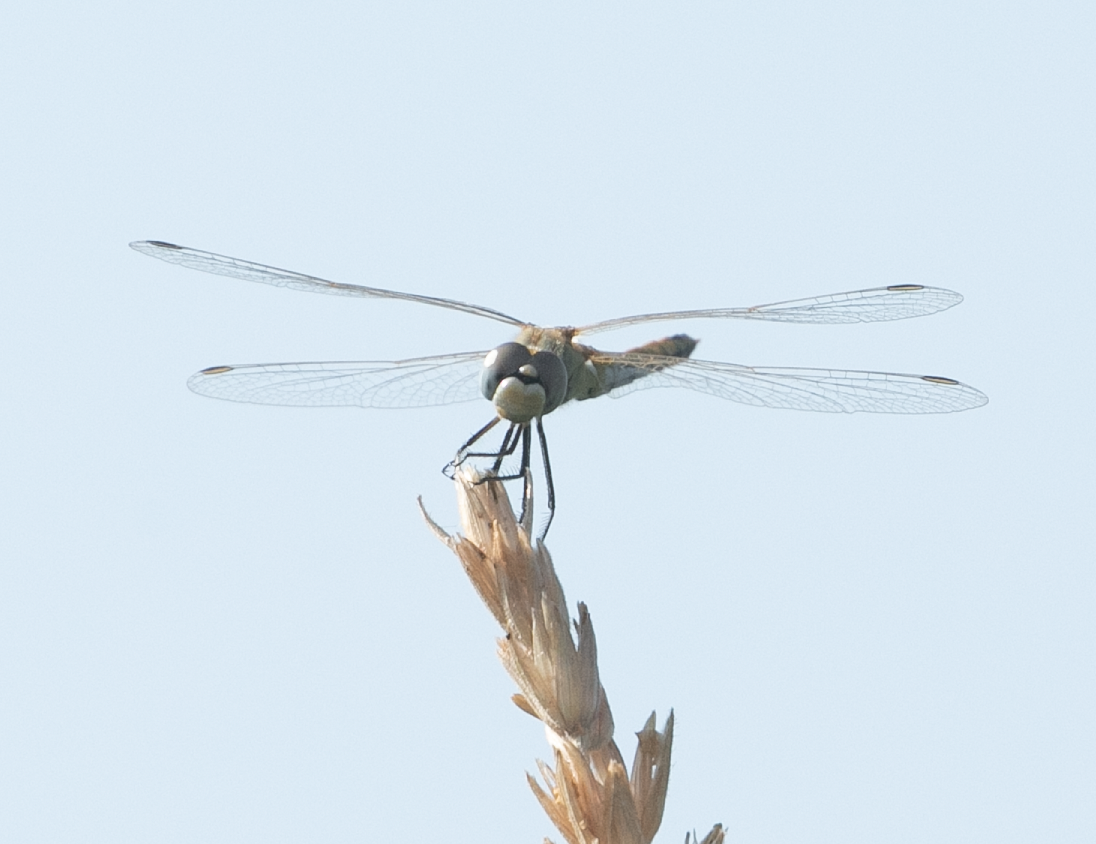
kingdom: Animalia
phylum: Arthropoda
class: Insecta
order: Odonata
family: Libellulidae
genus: Sympetrum
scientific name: Sympetrum fonscolombii
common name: Red-veined darter
